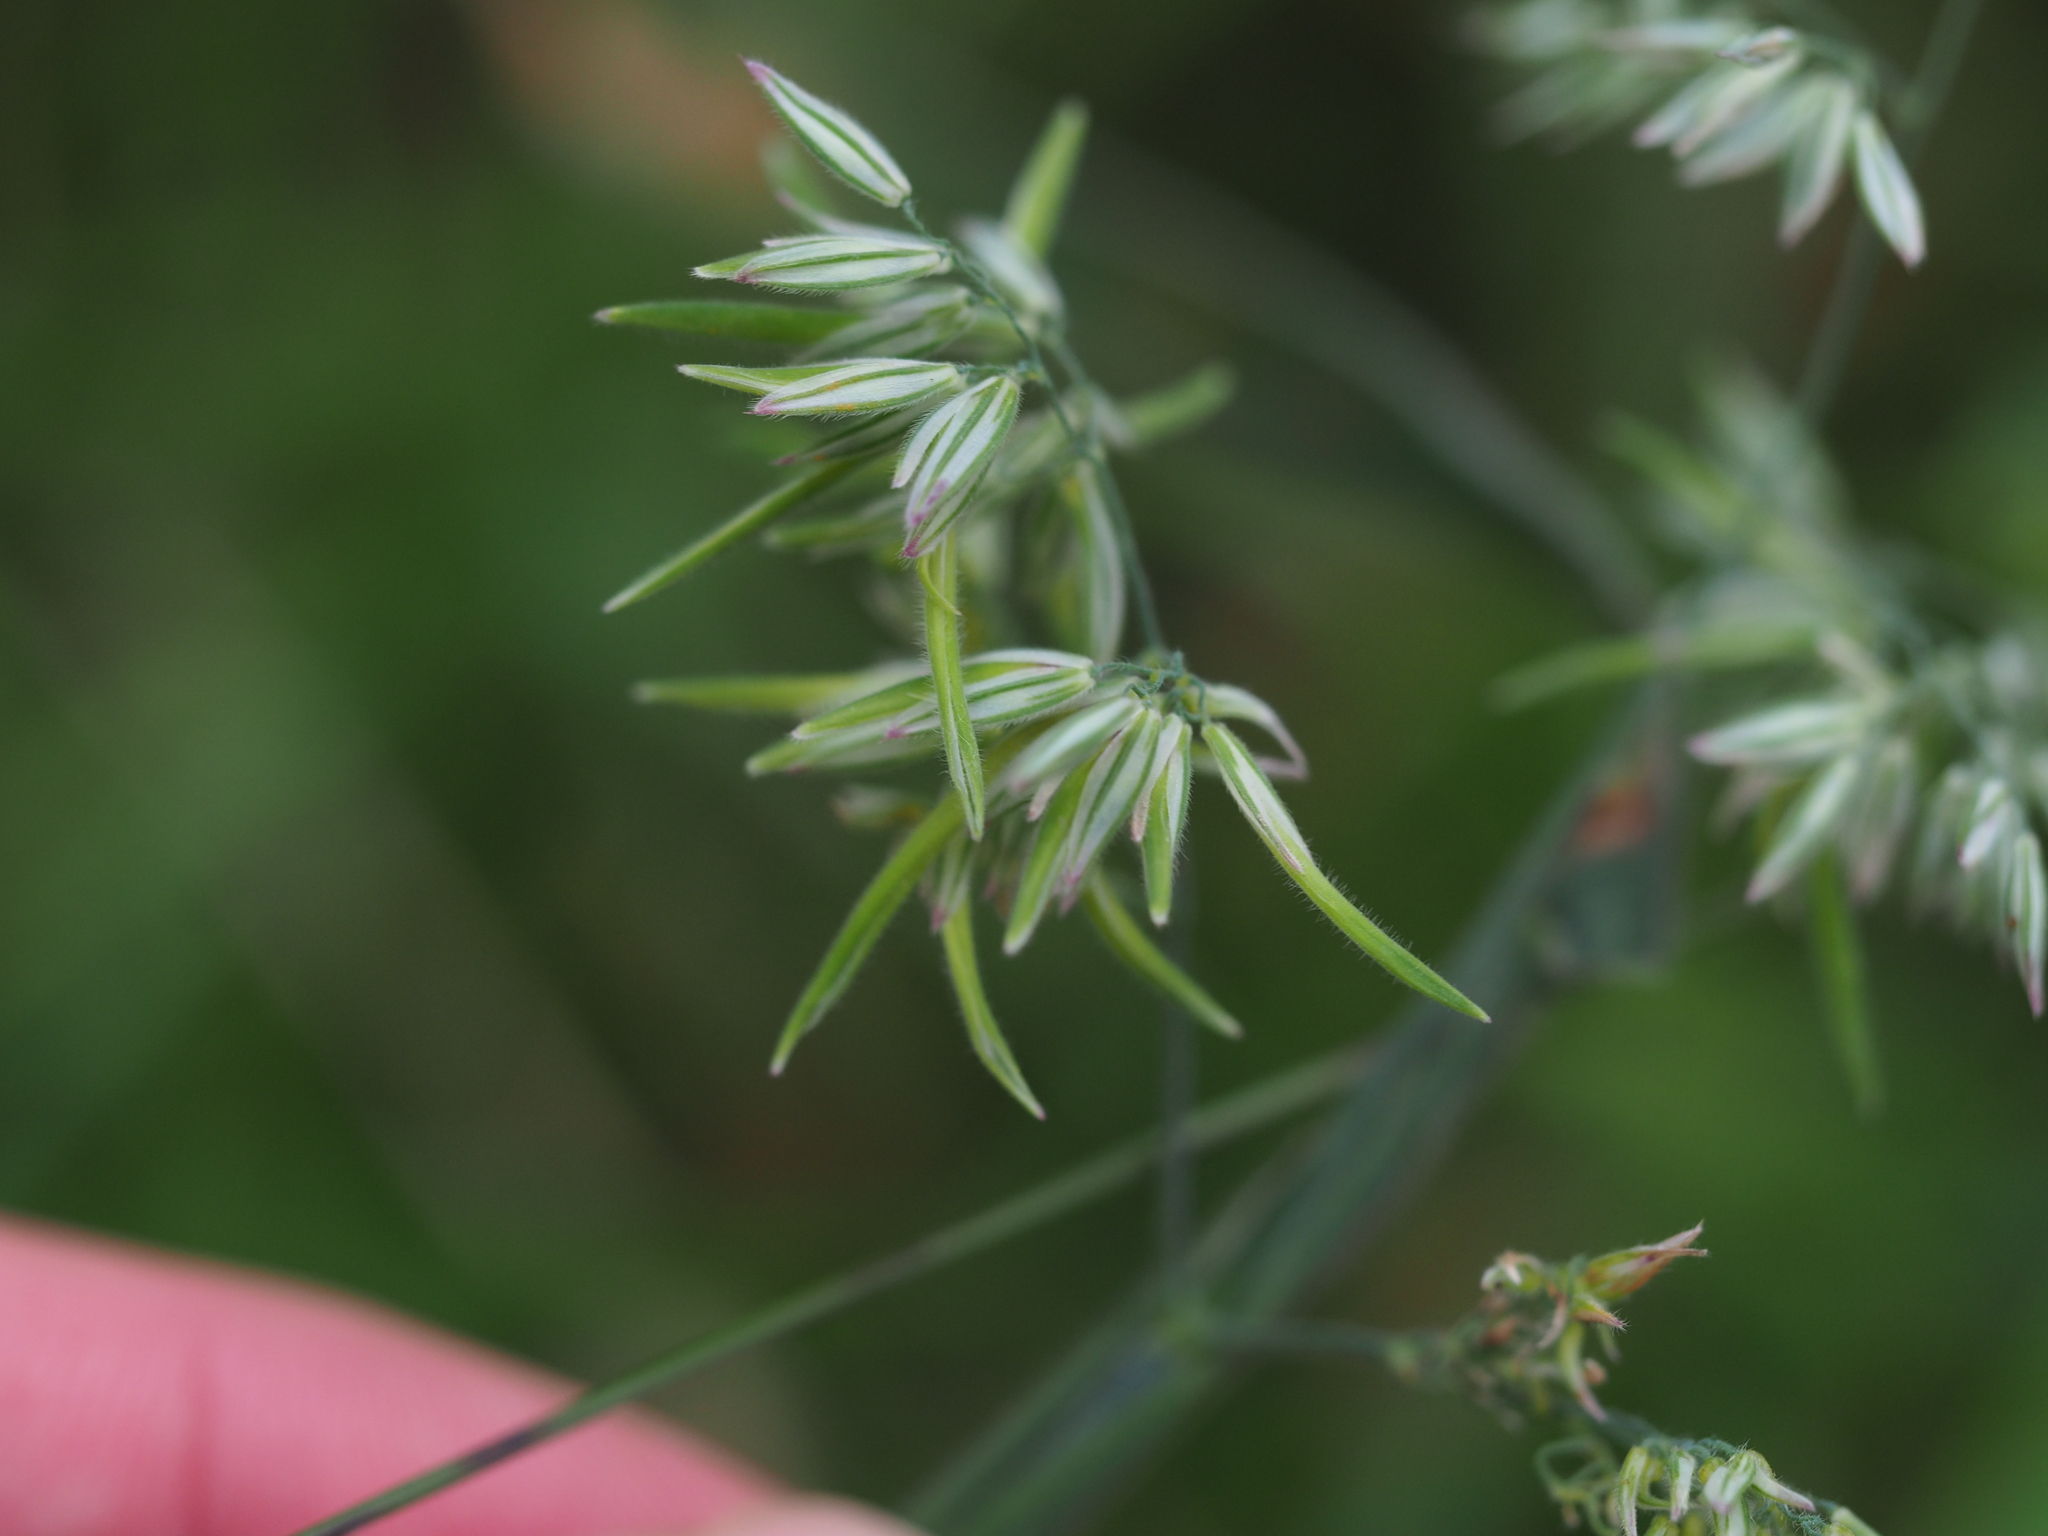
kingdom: Plantae
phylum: Tracheophyta
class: Liliopsida
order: Poales
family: Poaceae
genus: Holcus
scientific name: Holcus lanatus
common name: Yorkshire-fog
